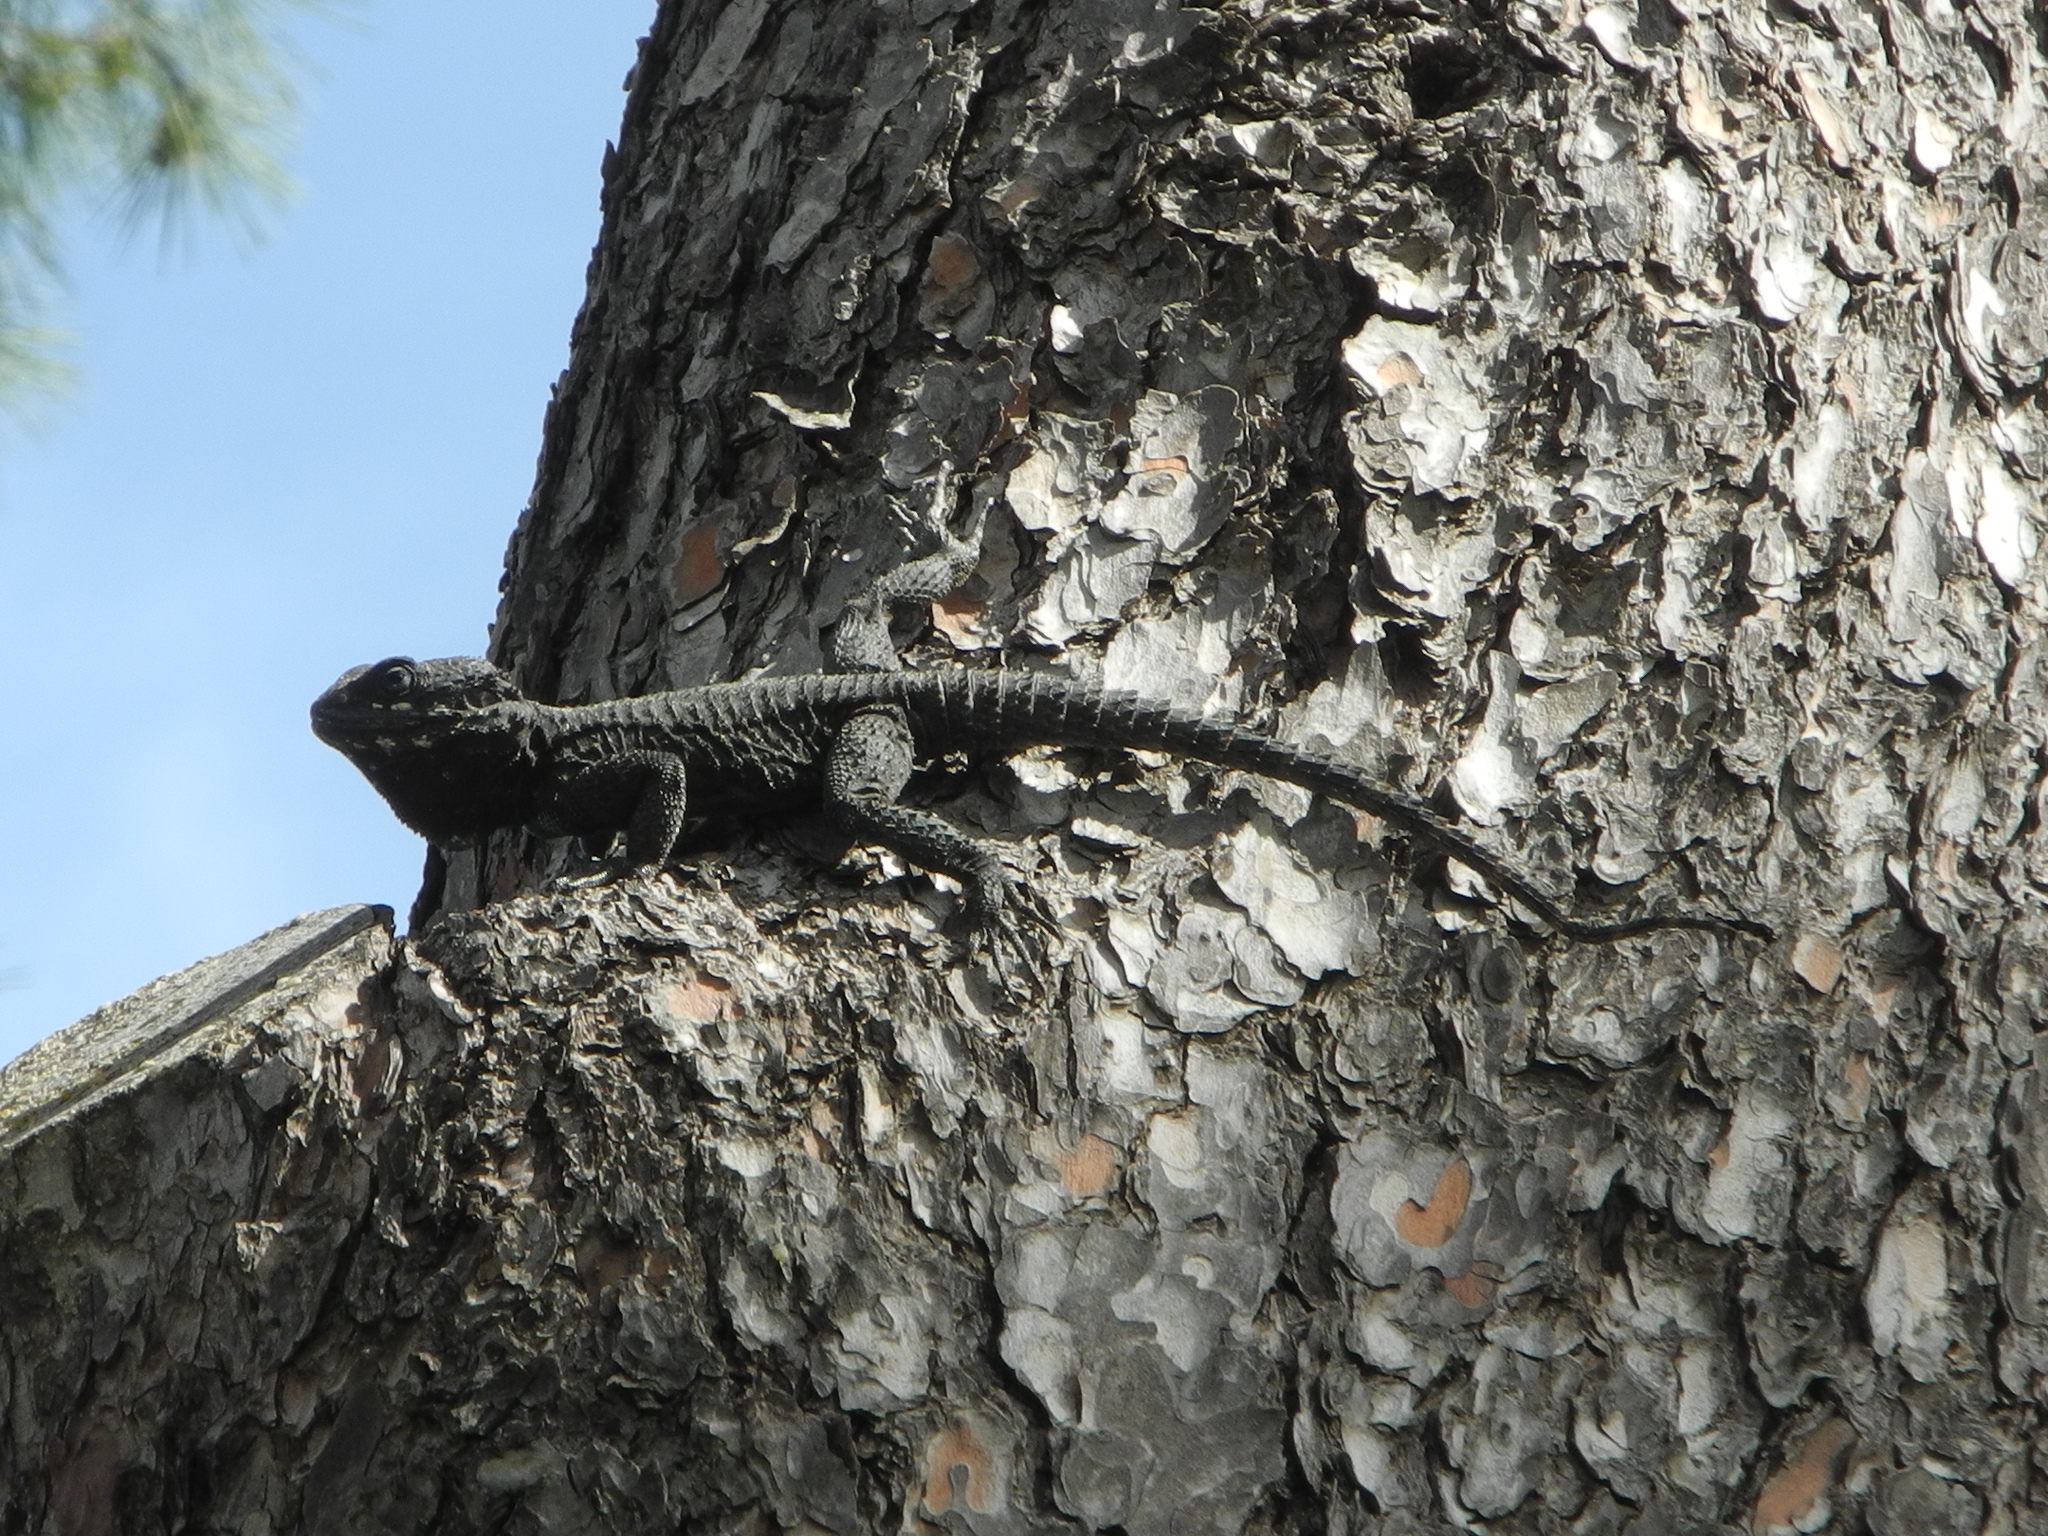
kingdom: Animalia
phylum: Chordata
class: Squamata
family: Agamidae
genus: Laudakia
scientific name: Laudakia vulgaris
